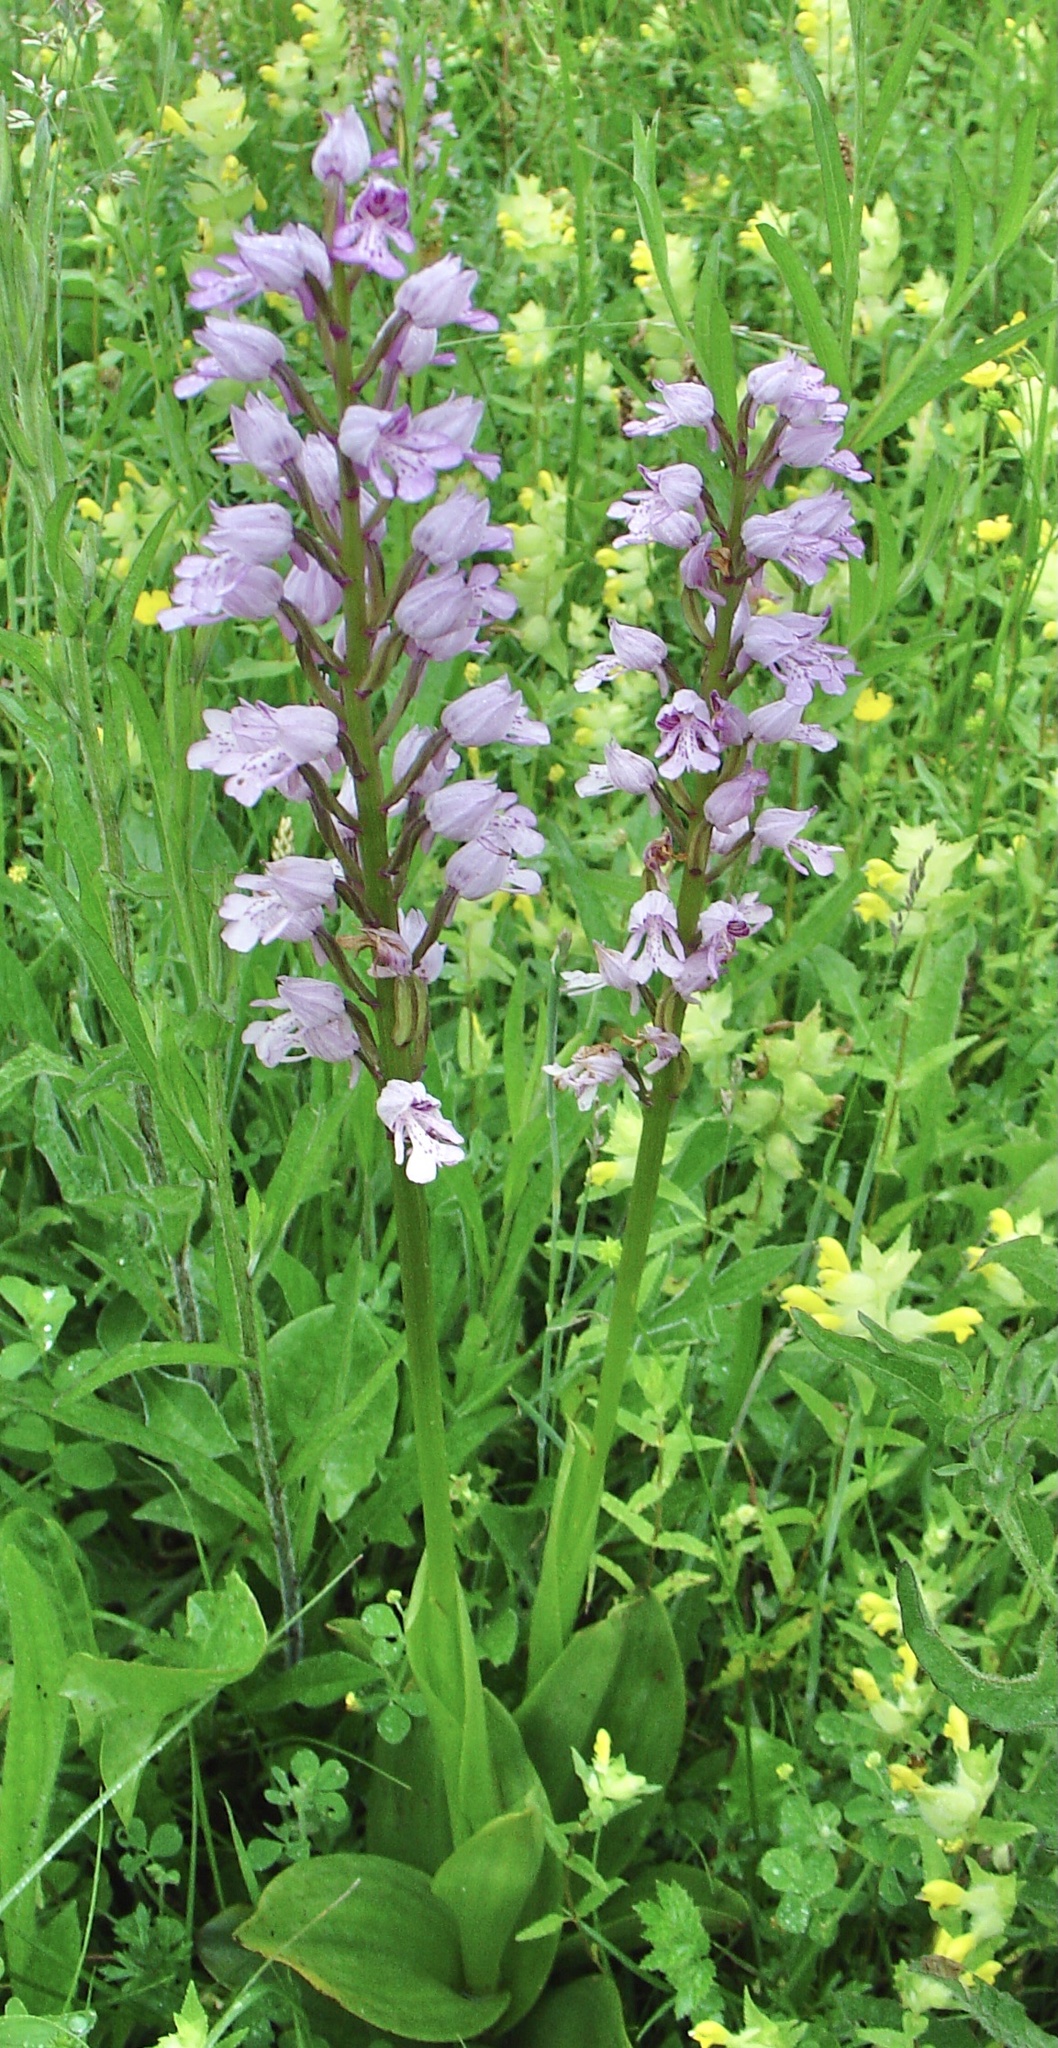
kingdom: Plantae
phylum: Tracheophyta
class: Liliopsida
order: Asparagales
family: Orchidaceae
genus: Orchis
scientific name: Orchis militaris
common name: Military orchid
